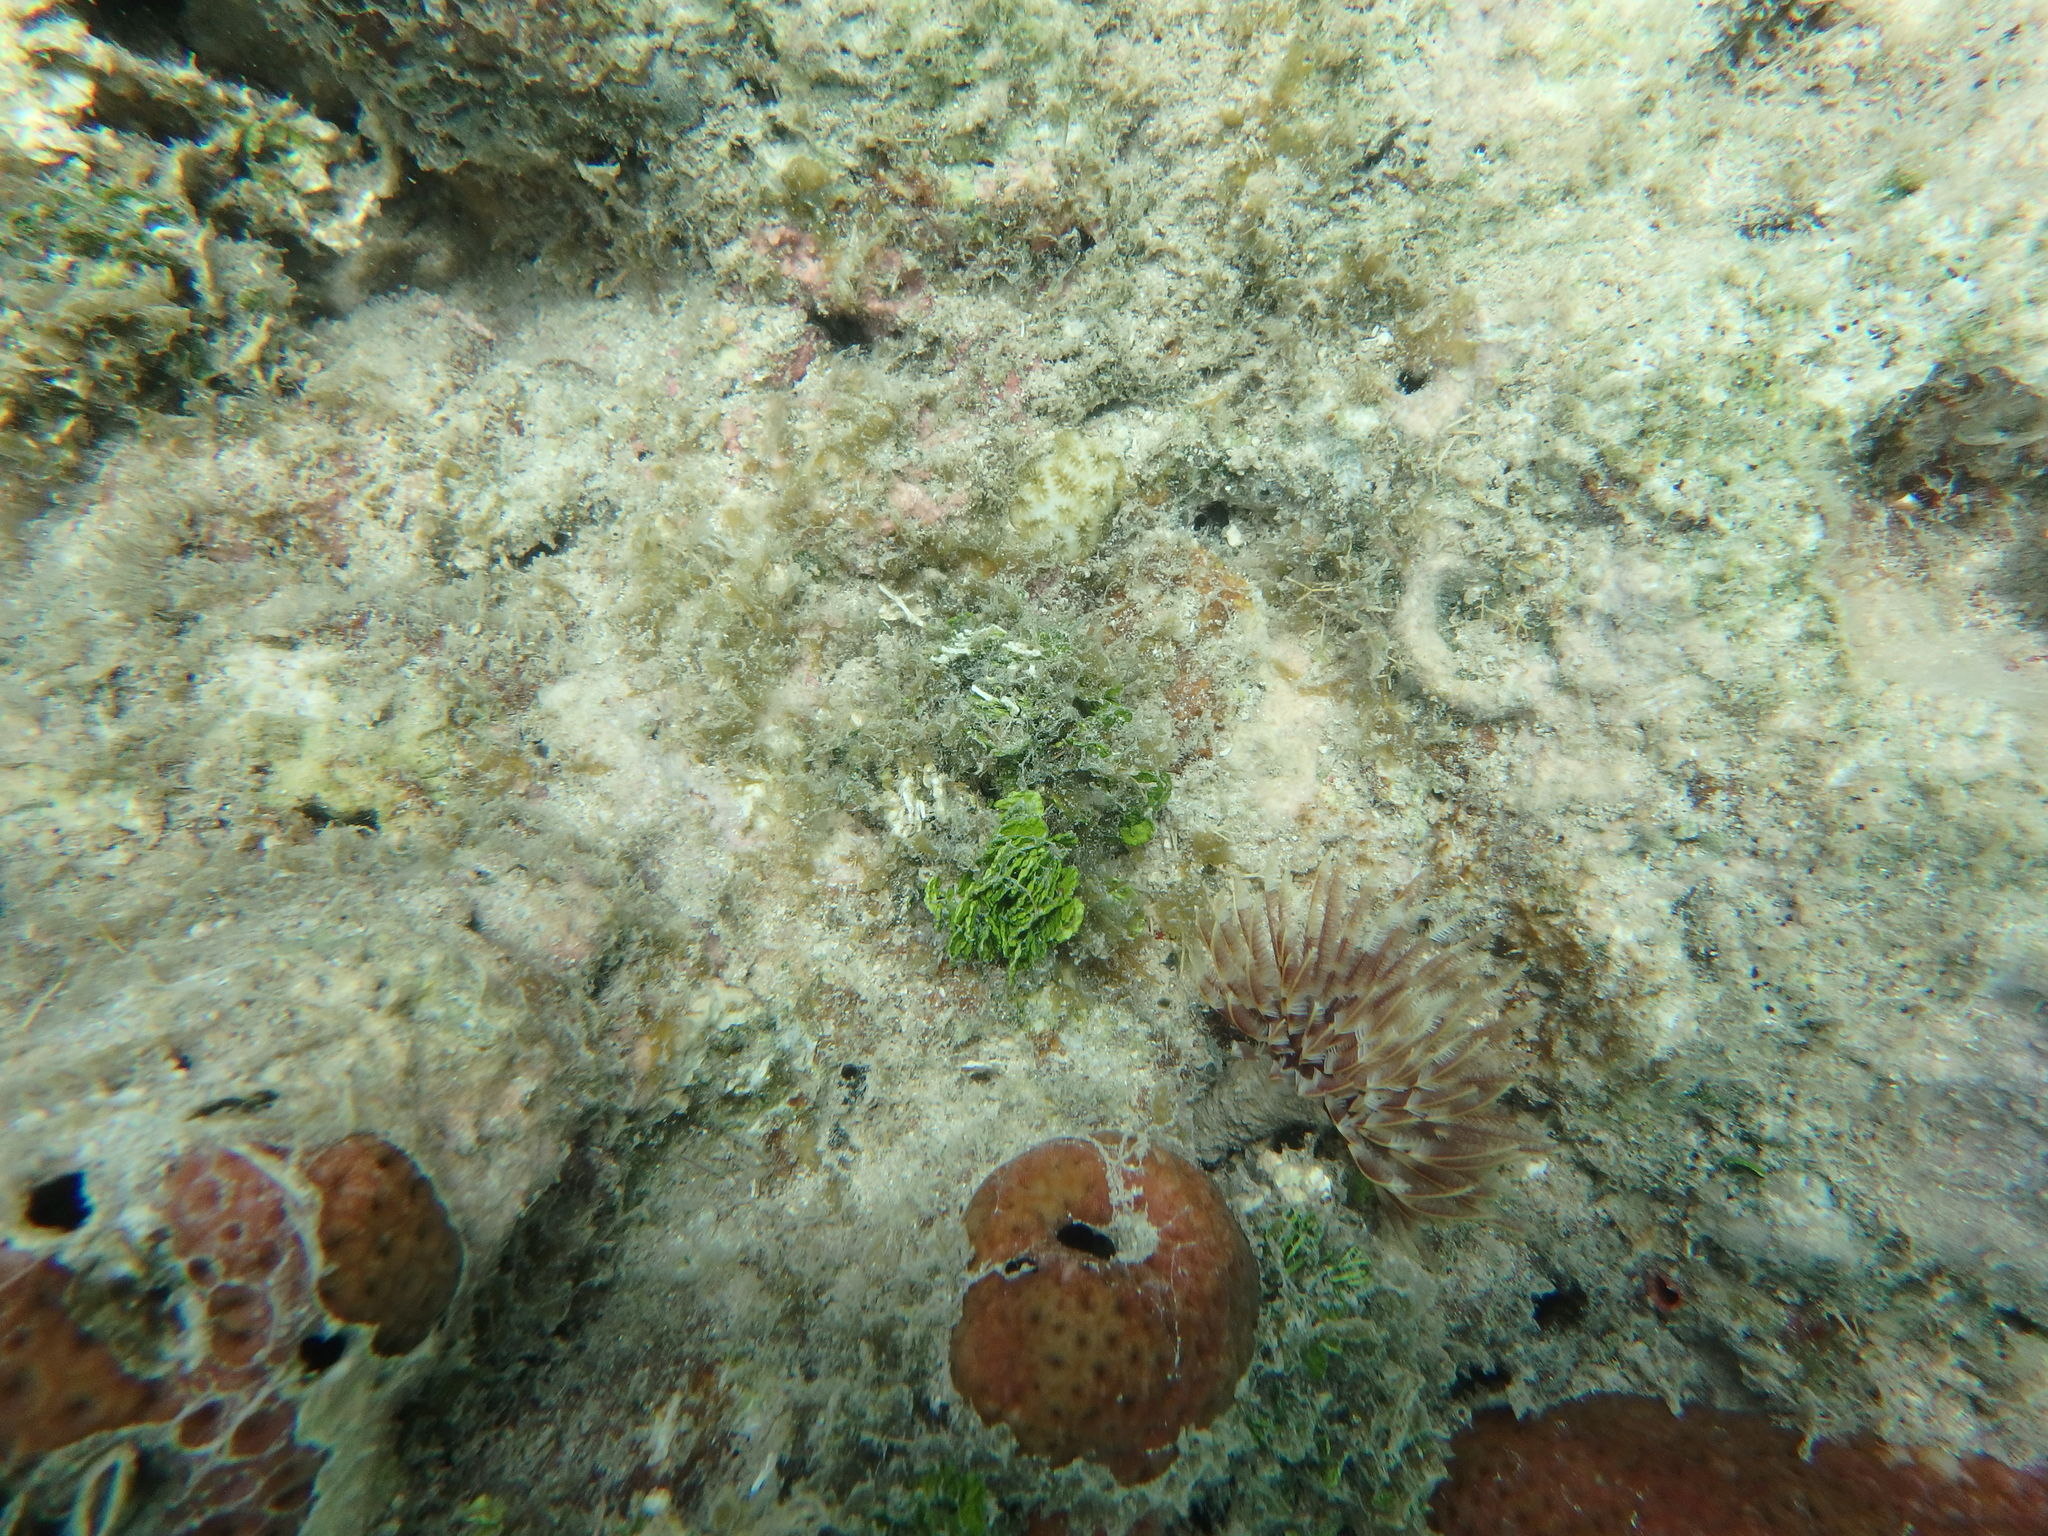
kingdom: Animalia
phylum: Annelida
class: Polychaeta
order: Sabellida
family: Sabellidae
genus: Sabellastarte
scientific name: Sabellastarte magnifica
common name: Giant feather-duster worm
